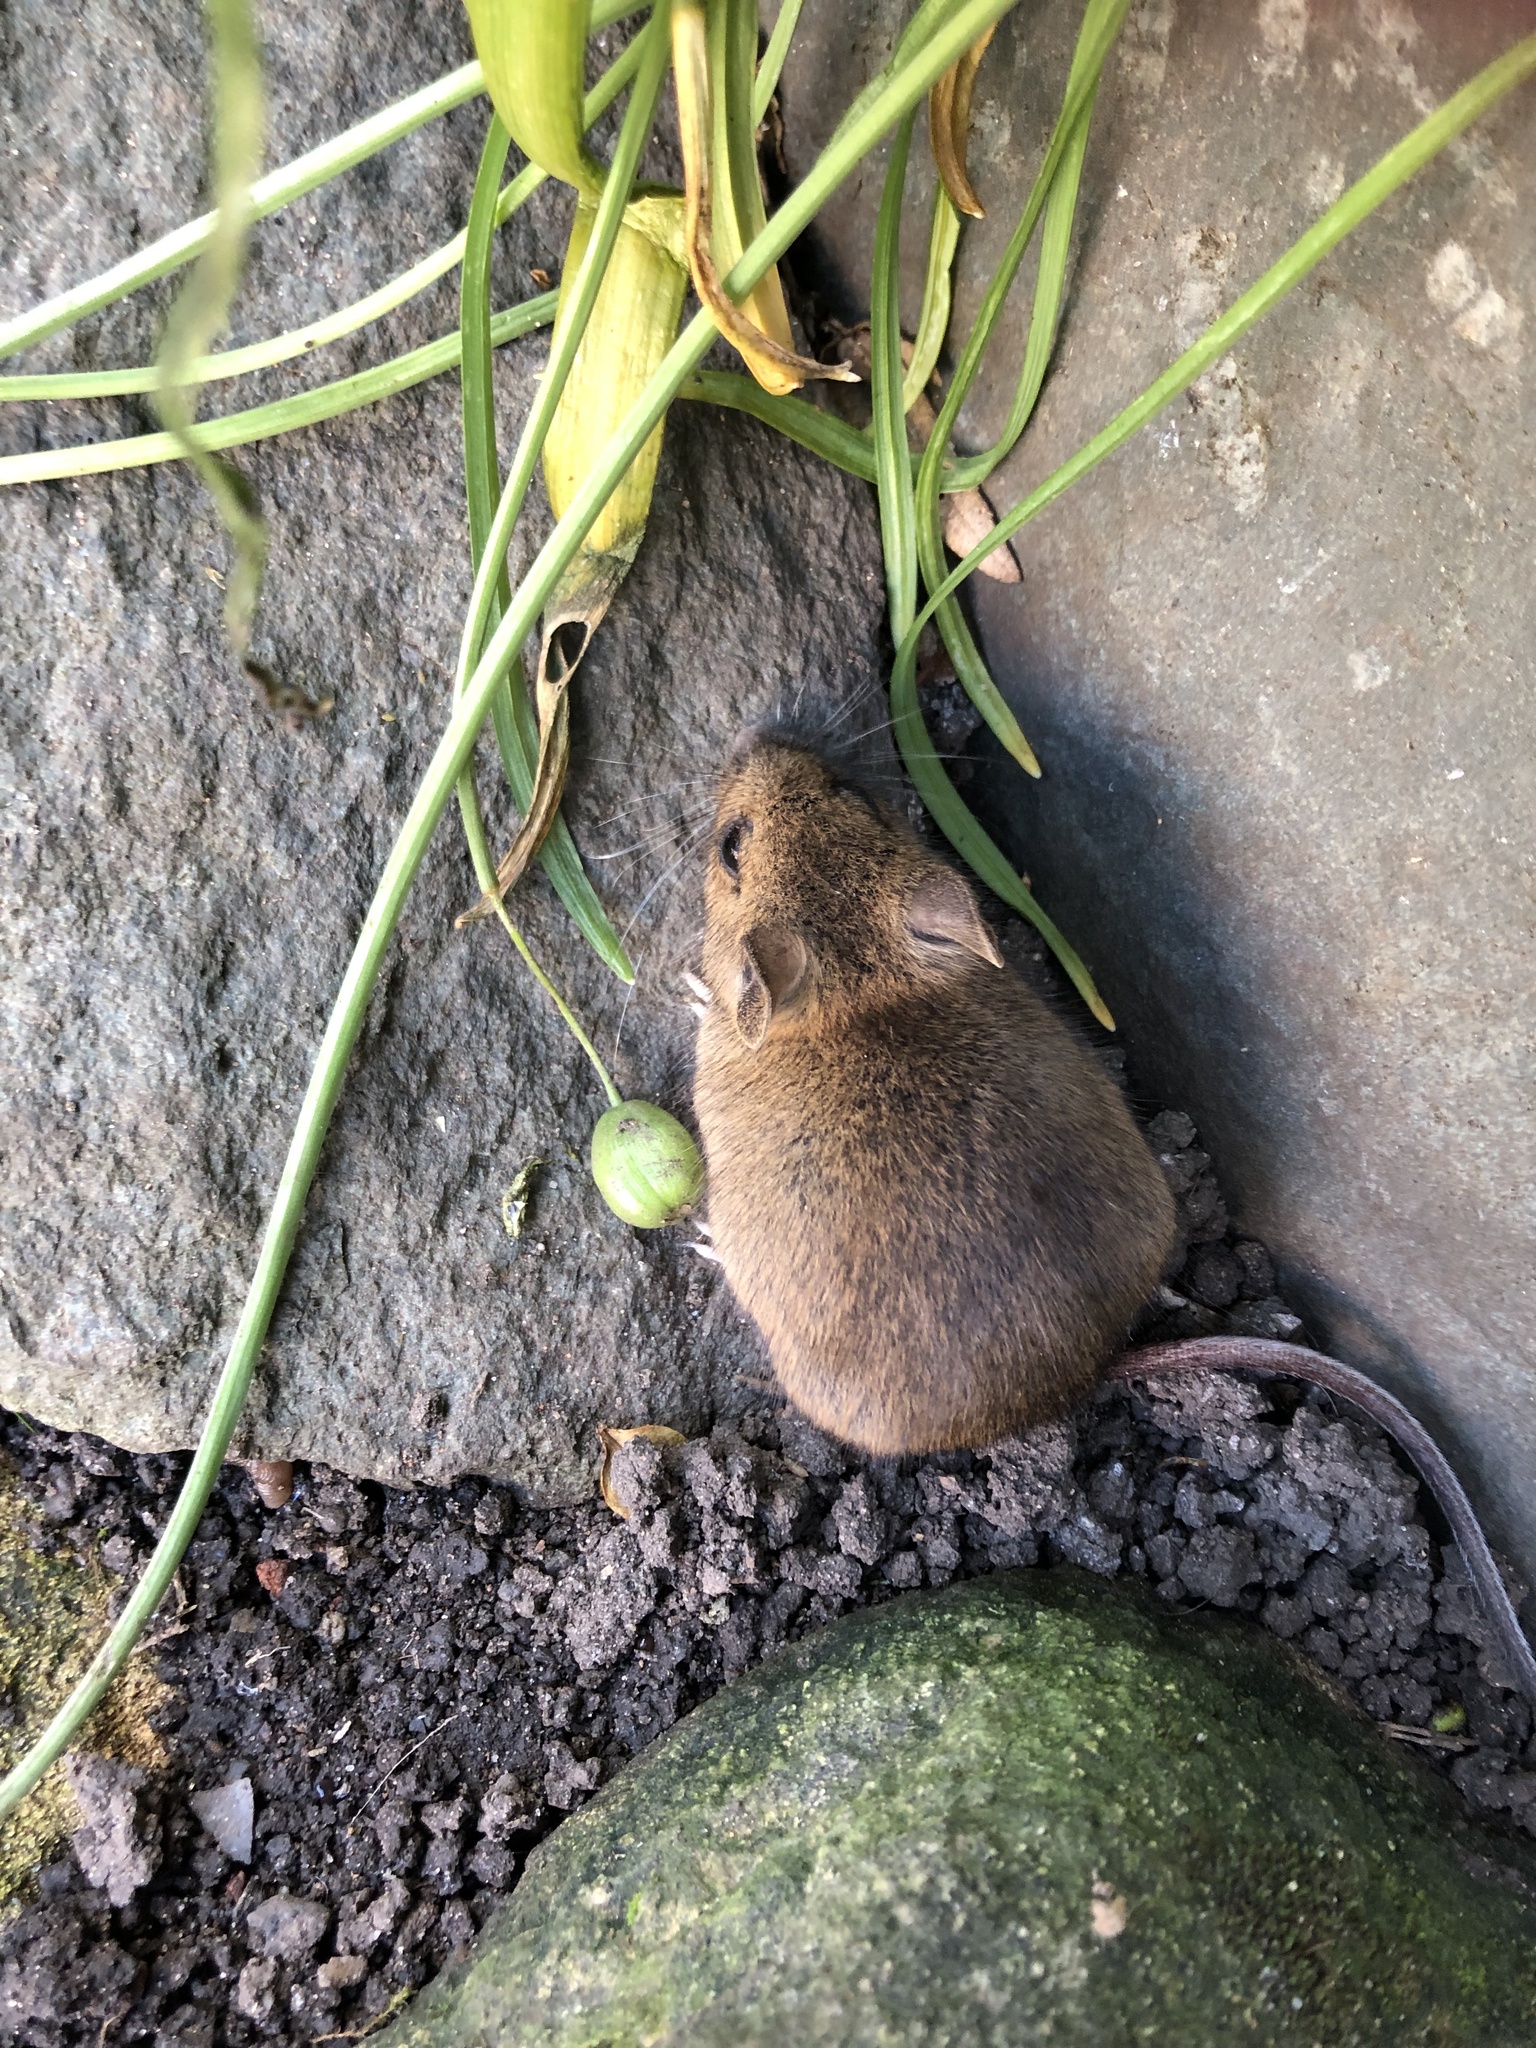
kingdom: Animalia
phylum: Chordata
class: Mammalia
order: Rodentia
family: Muridae
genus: Apodemus
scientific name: Apodemus sylvaticus
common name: Wood mouse
